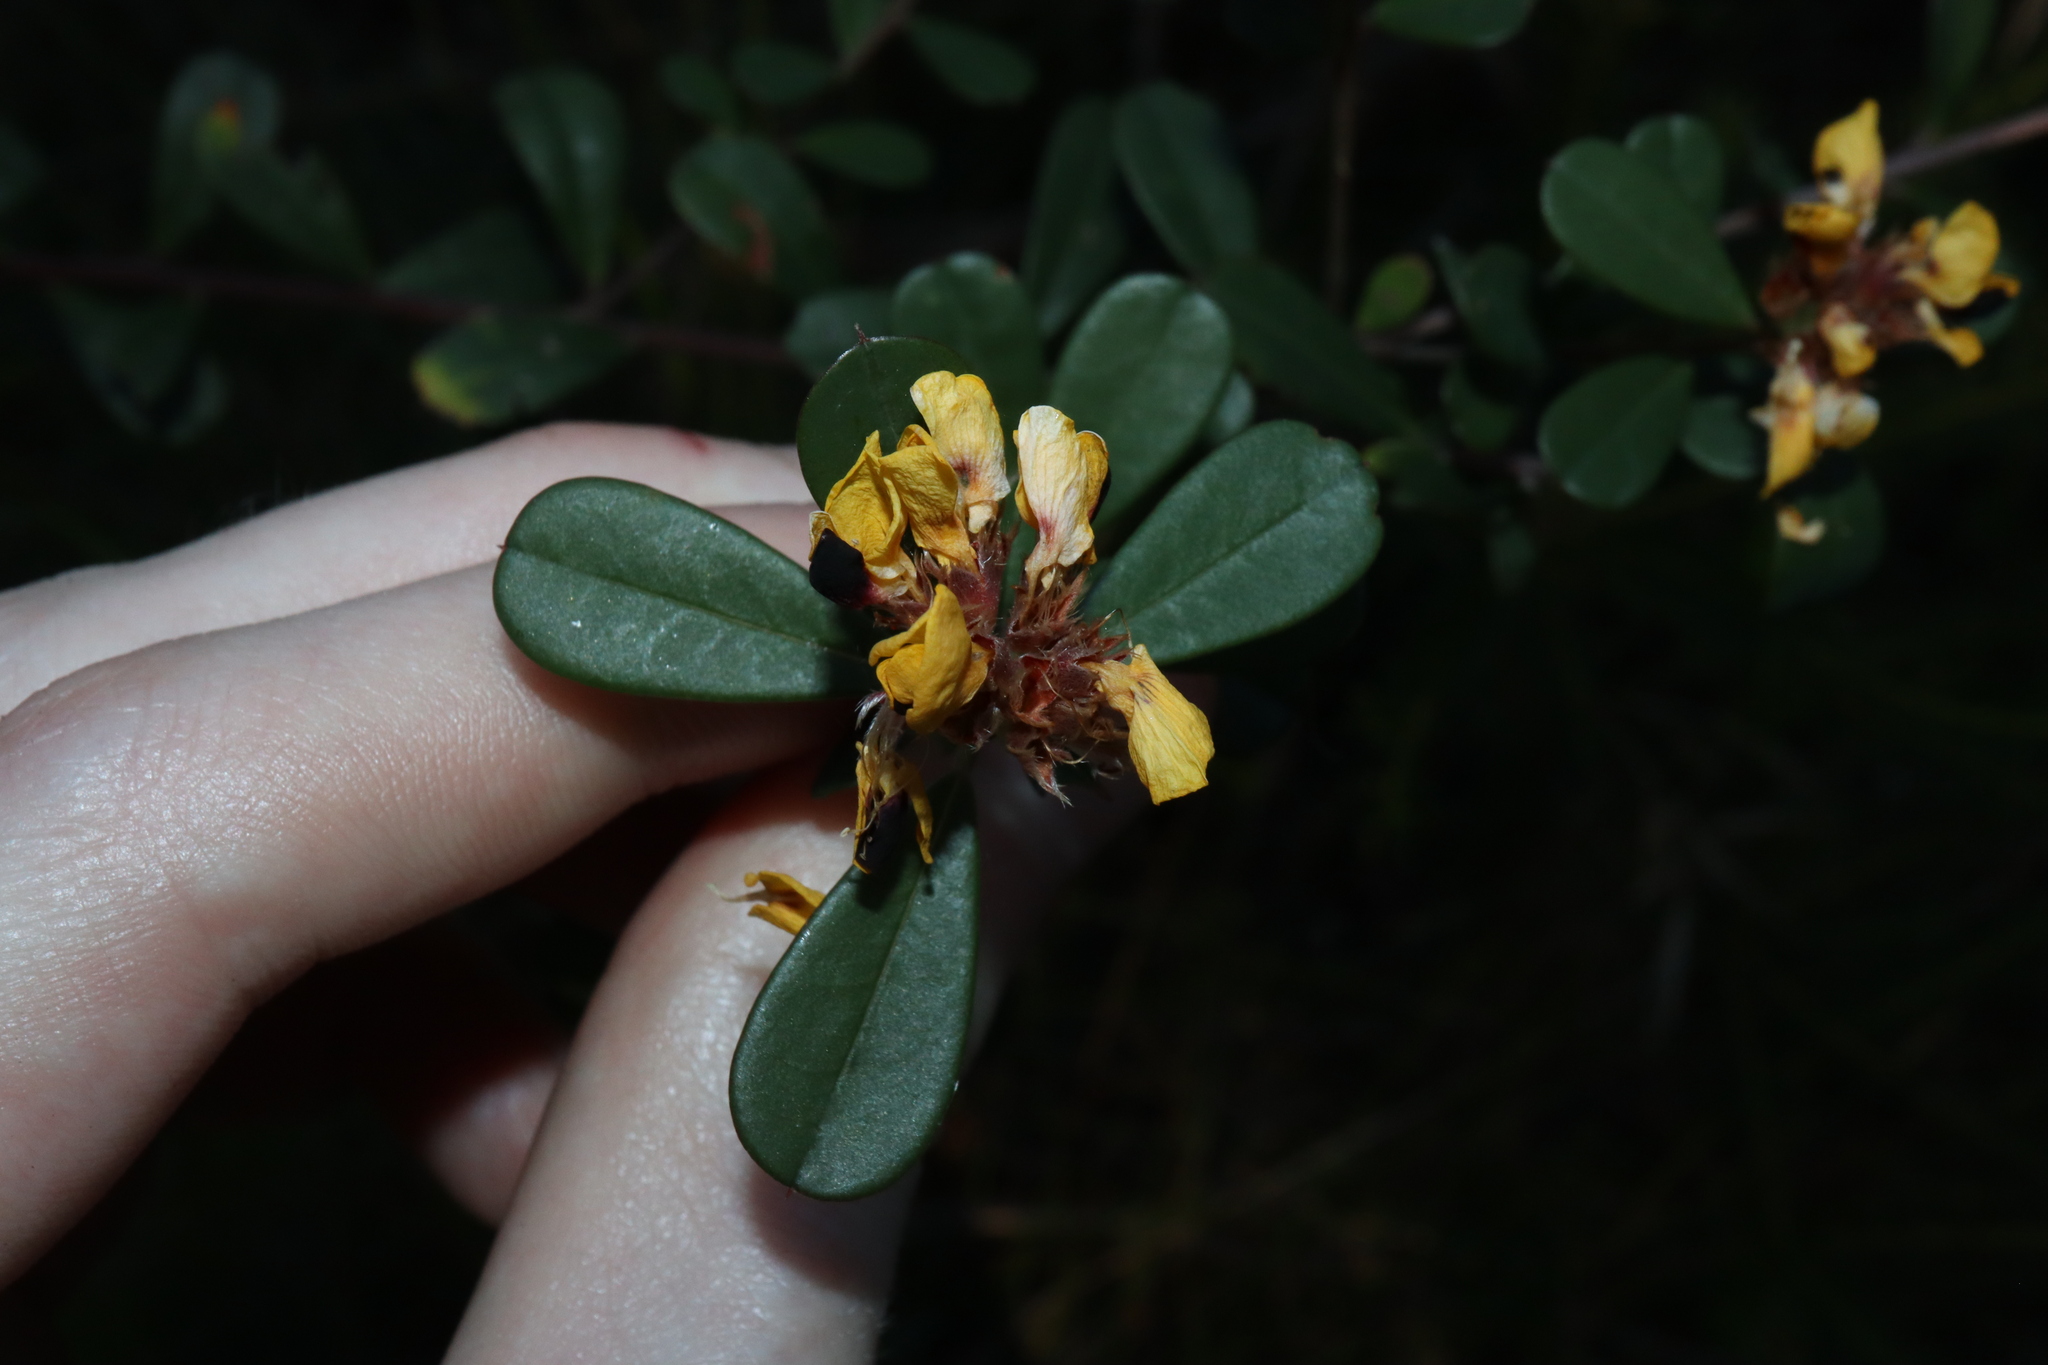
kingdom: Plantae
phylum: Tracheophyta
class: Magnoliopsida
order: Fabales
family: Fabaceae
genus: Pultenaea
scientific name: Pultenaea daphnoides
